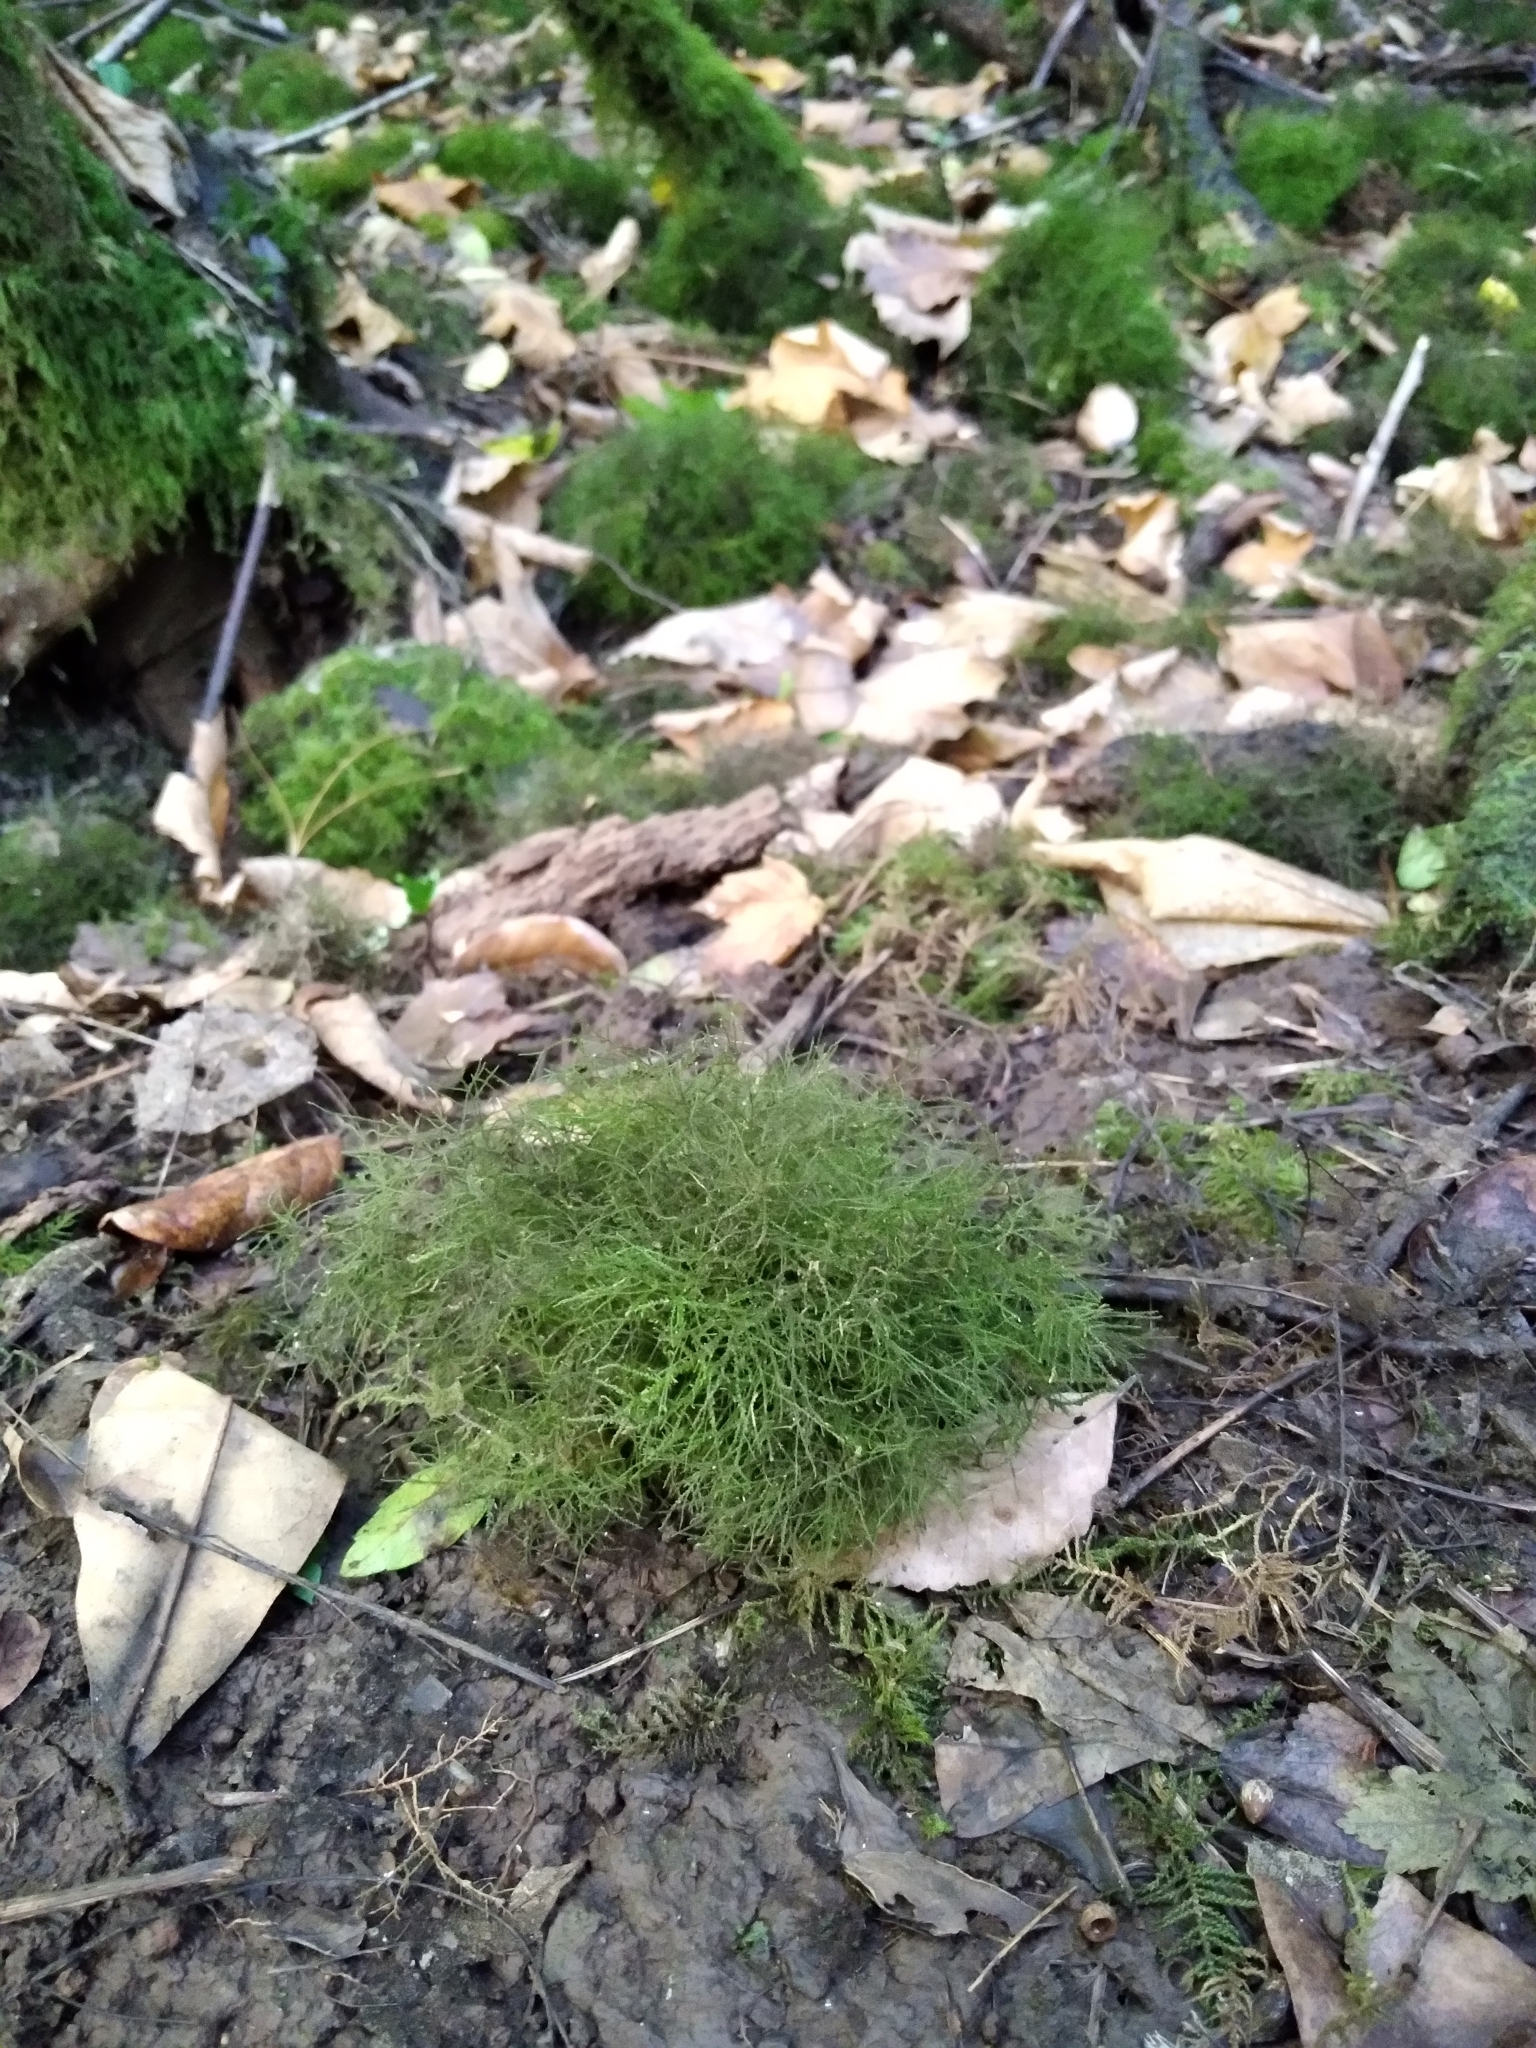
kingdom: Plantae
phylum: Bryophyta
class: Bryopsida
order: Hypnales
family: Lembophyllaceae
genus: Rigodium
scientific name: Rigodium implexum
